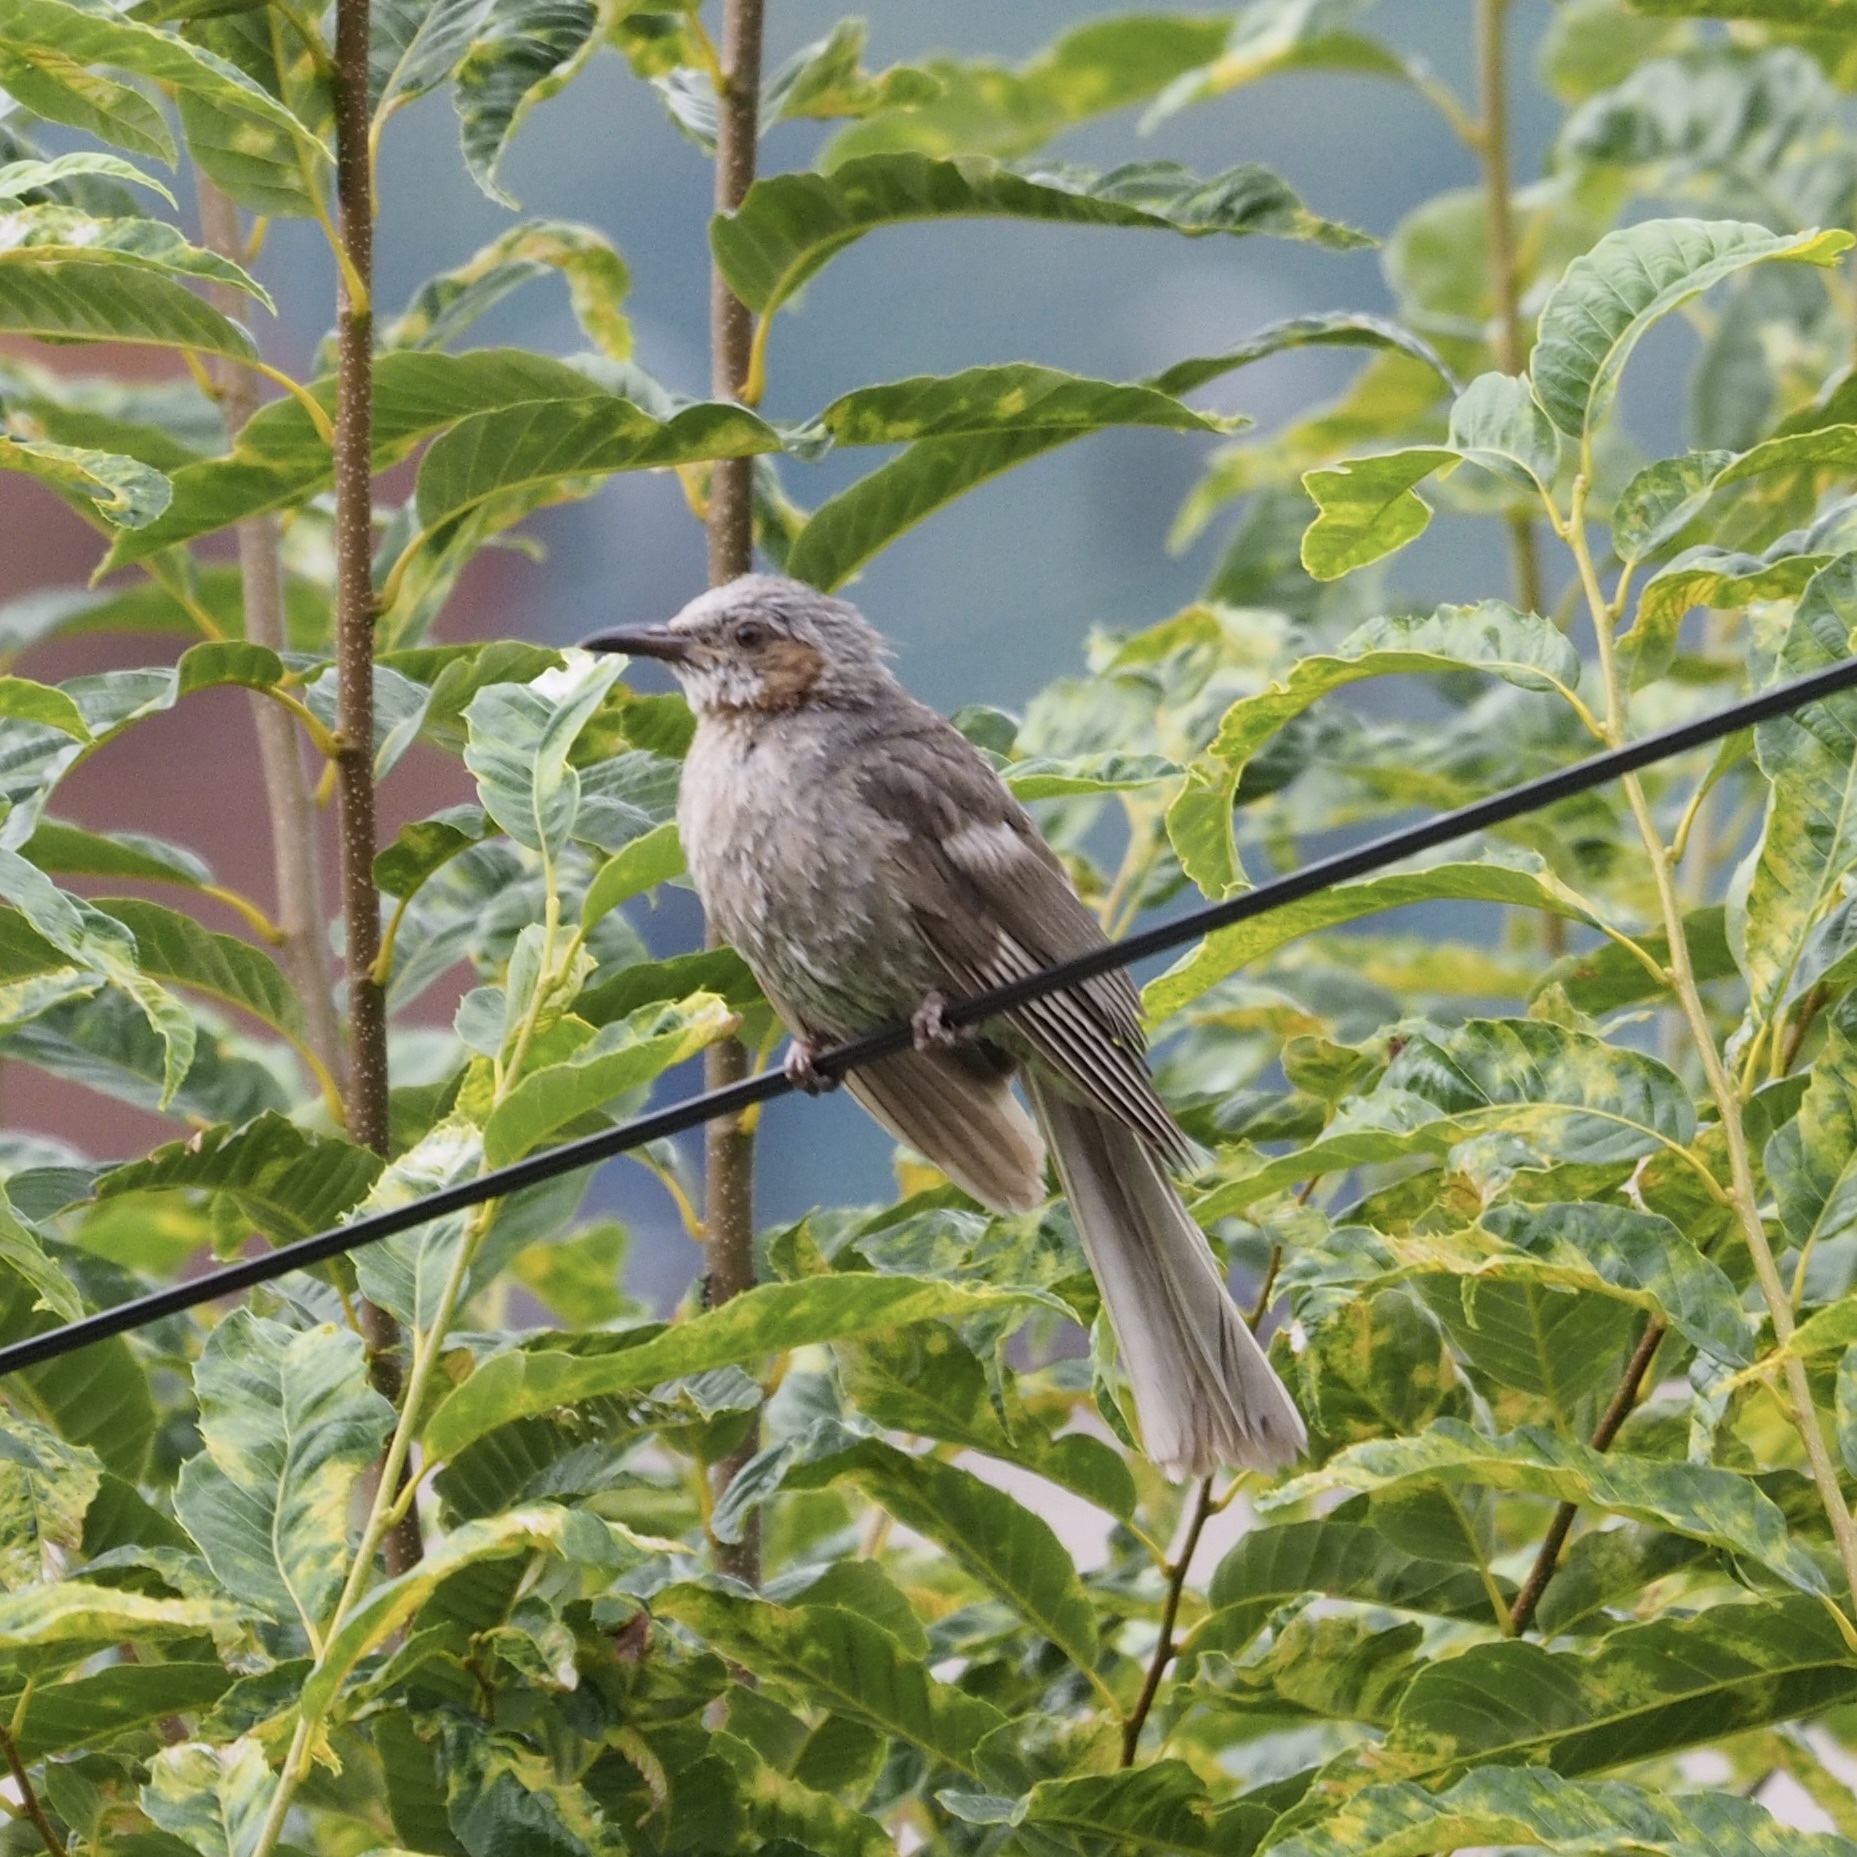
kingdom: Animalia
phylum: Chordata
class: Aves
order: Passeriformes
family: Pycnonotidae
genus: Hypsipetes
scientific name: Hypsipetes amaurotis
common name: Brown-eared bulbul
